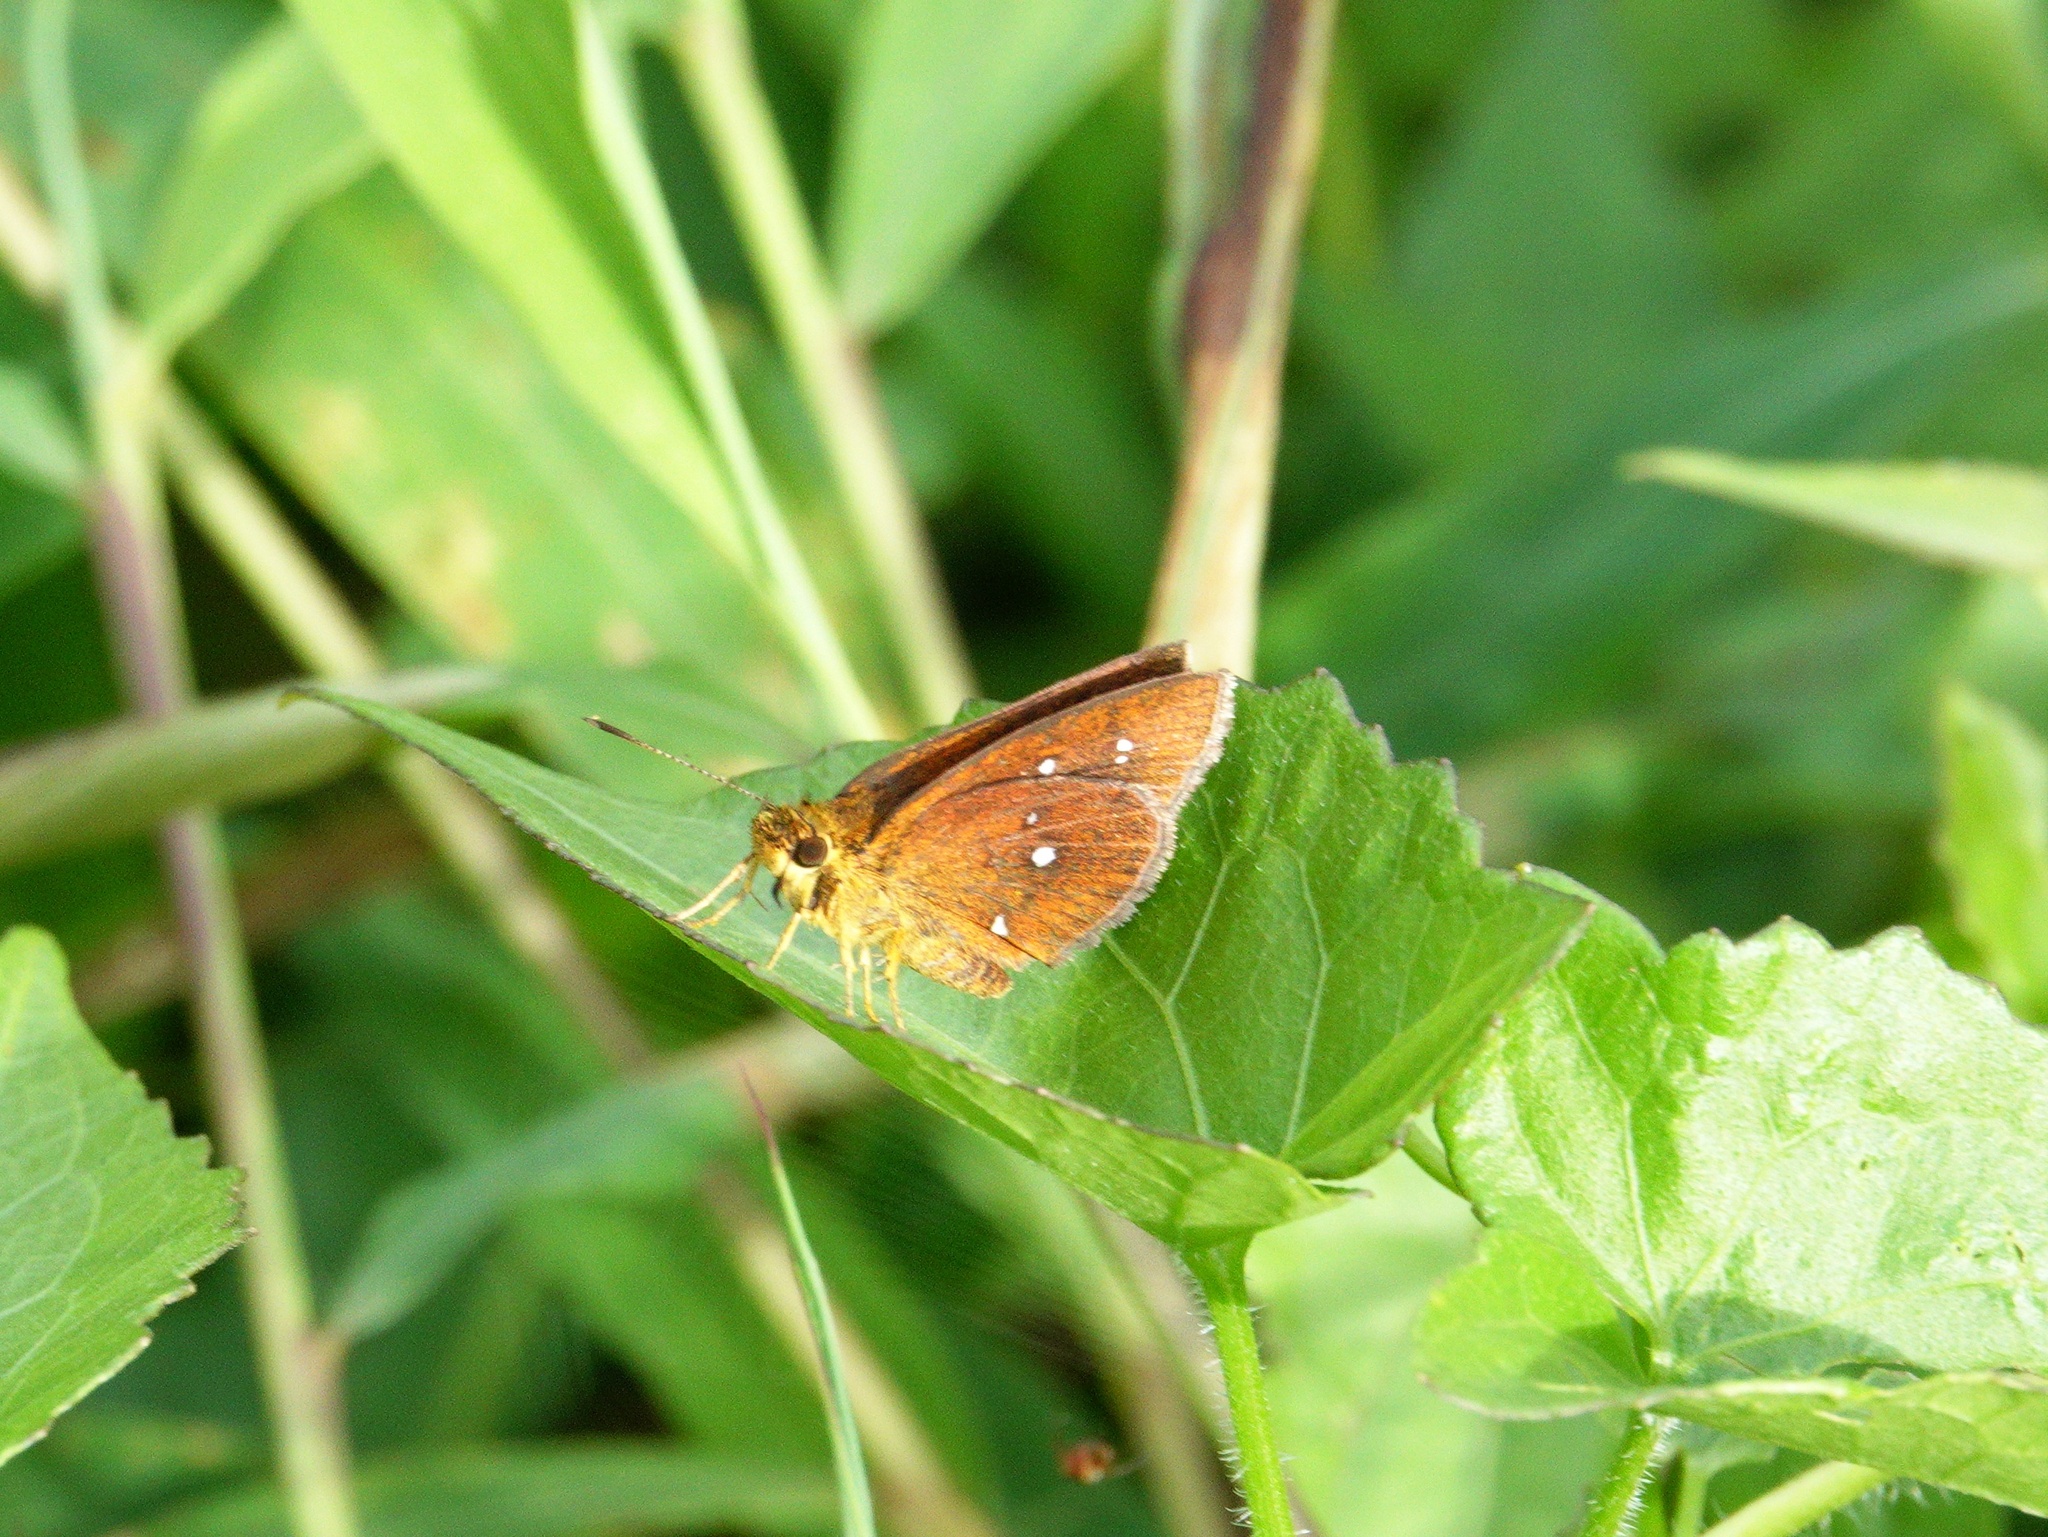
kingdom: Animalia
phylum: Arthropoda
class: Insecta
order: Lepidoptera
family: Hesperiidae
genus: Iambrix
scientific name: Iambrix salsala
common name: Chestnut bob
